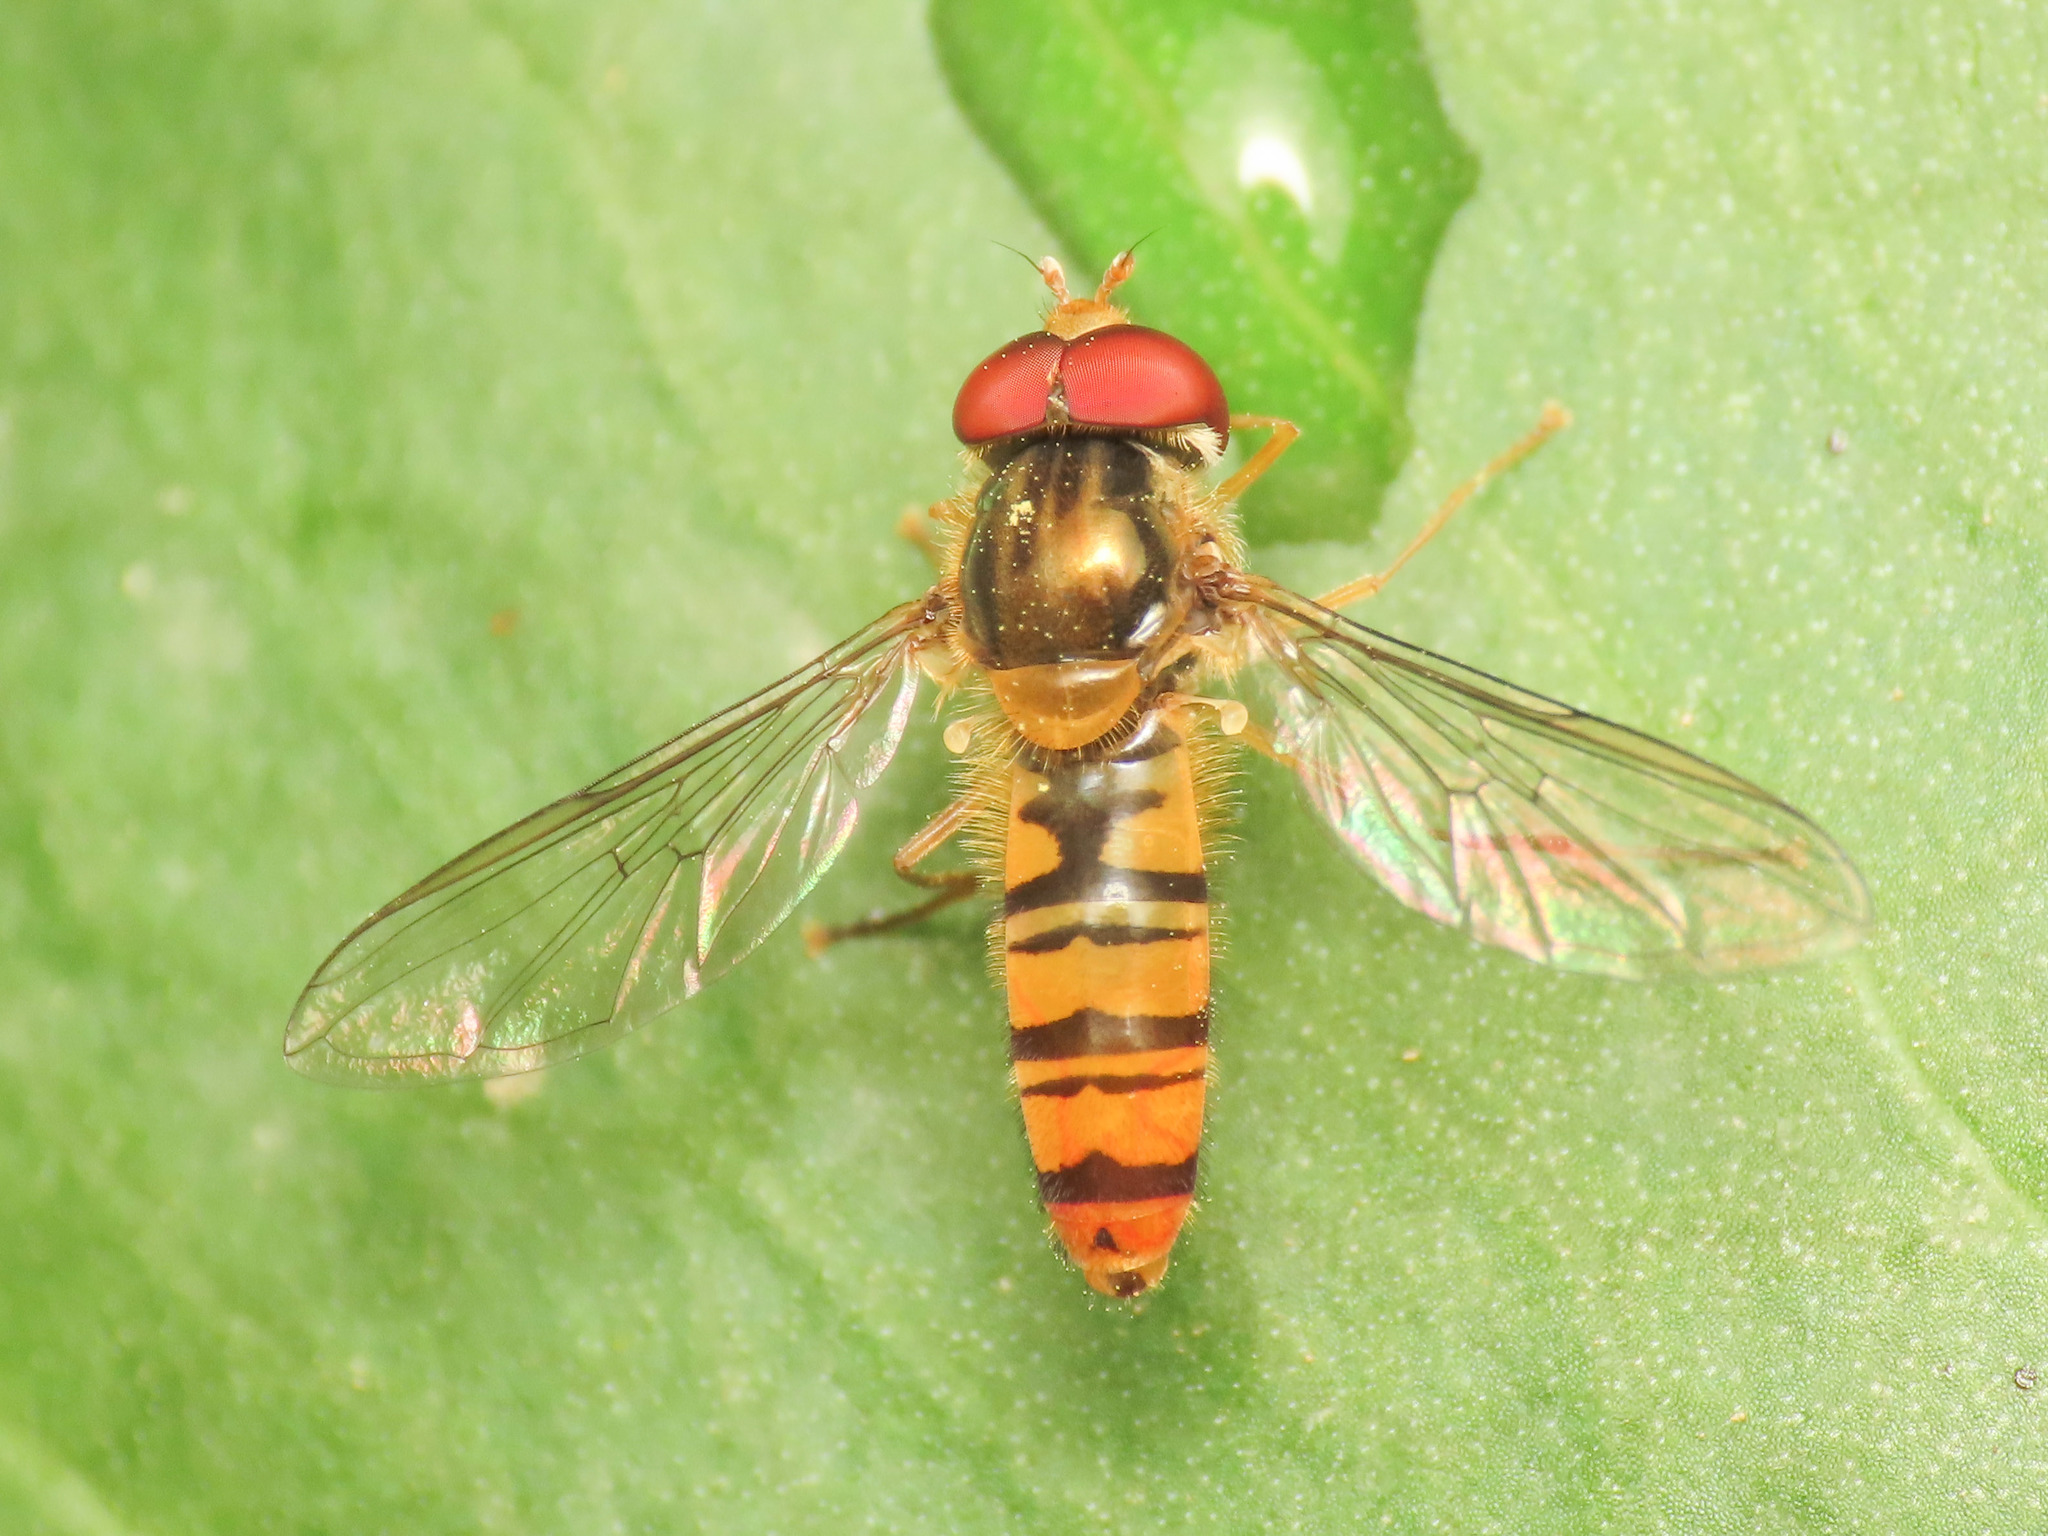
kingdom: Animalia
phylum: Arthropoda
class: Insecta
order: Diptera
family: Syrphidae
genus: Episyrphus
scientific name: Episyrphus balteatus
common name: Marmalade hoverfly
